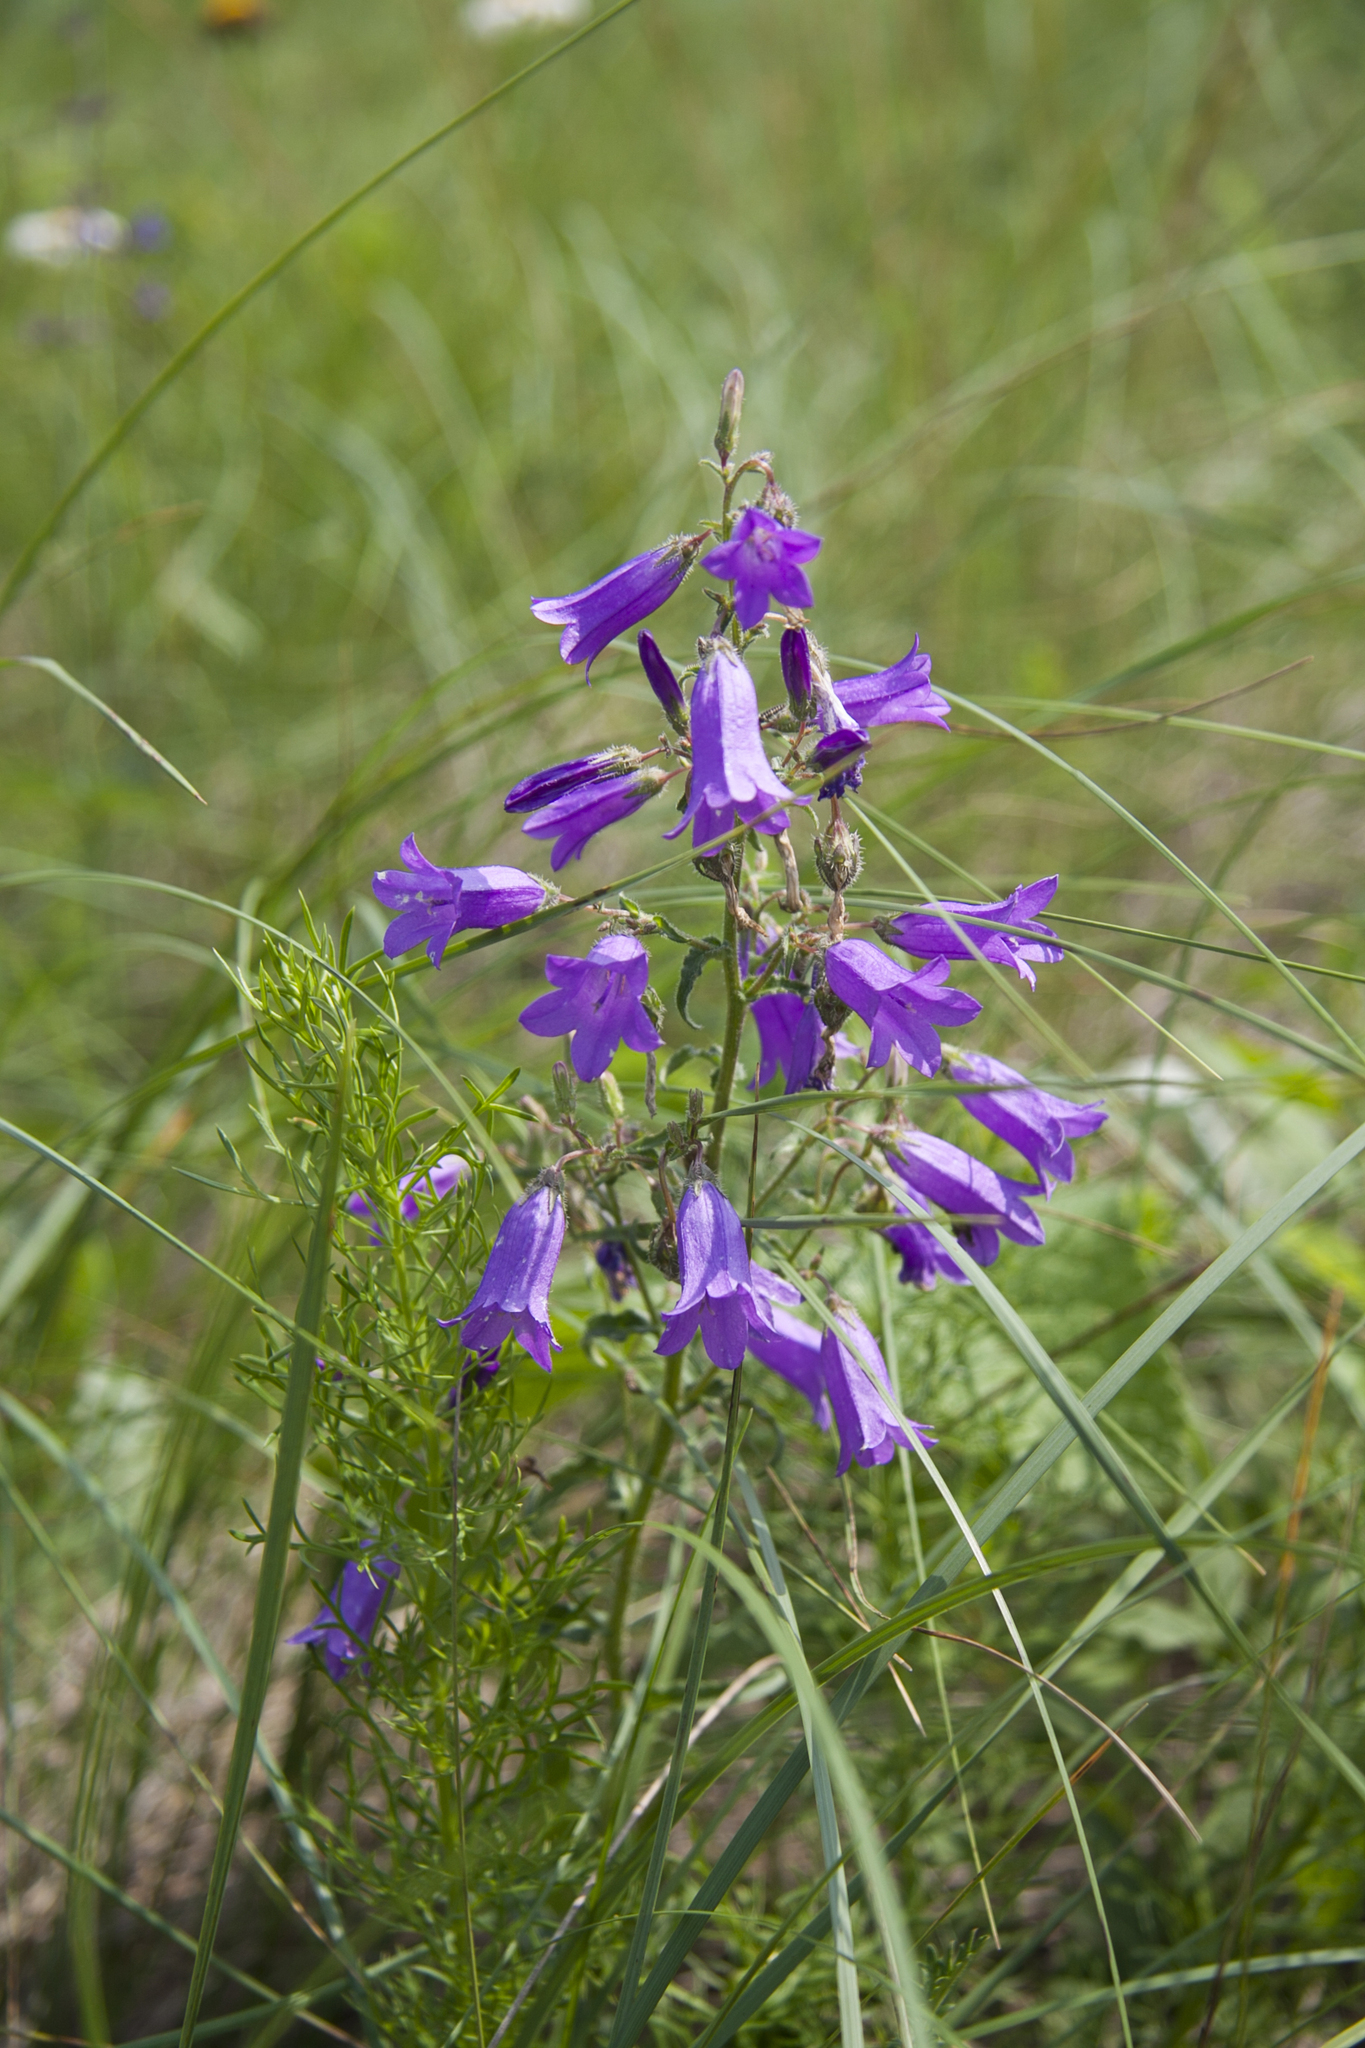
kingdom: Plantae
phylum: Tracheophyta
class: Magnoliopsida
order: Asterales
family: Campanulaceae
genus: Campanula
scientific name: Campanula sibirica
